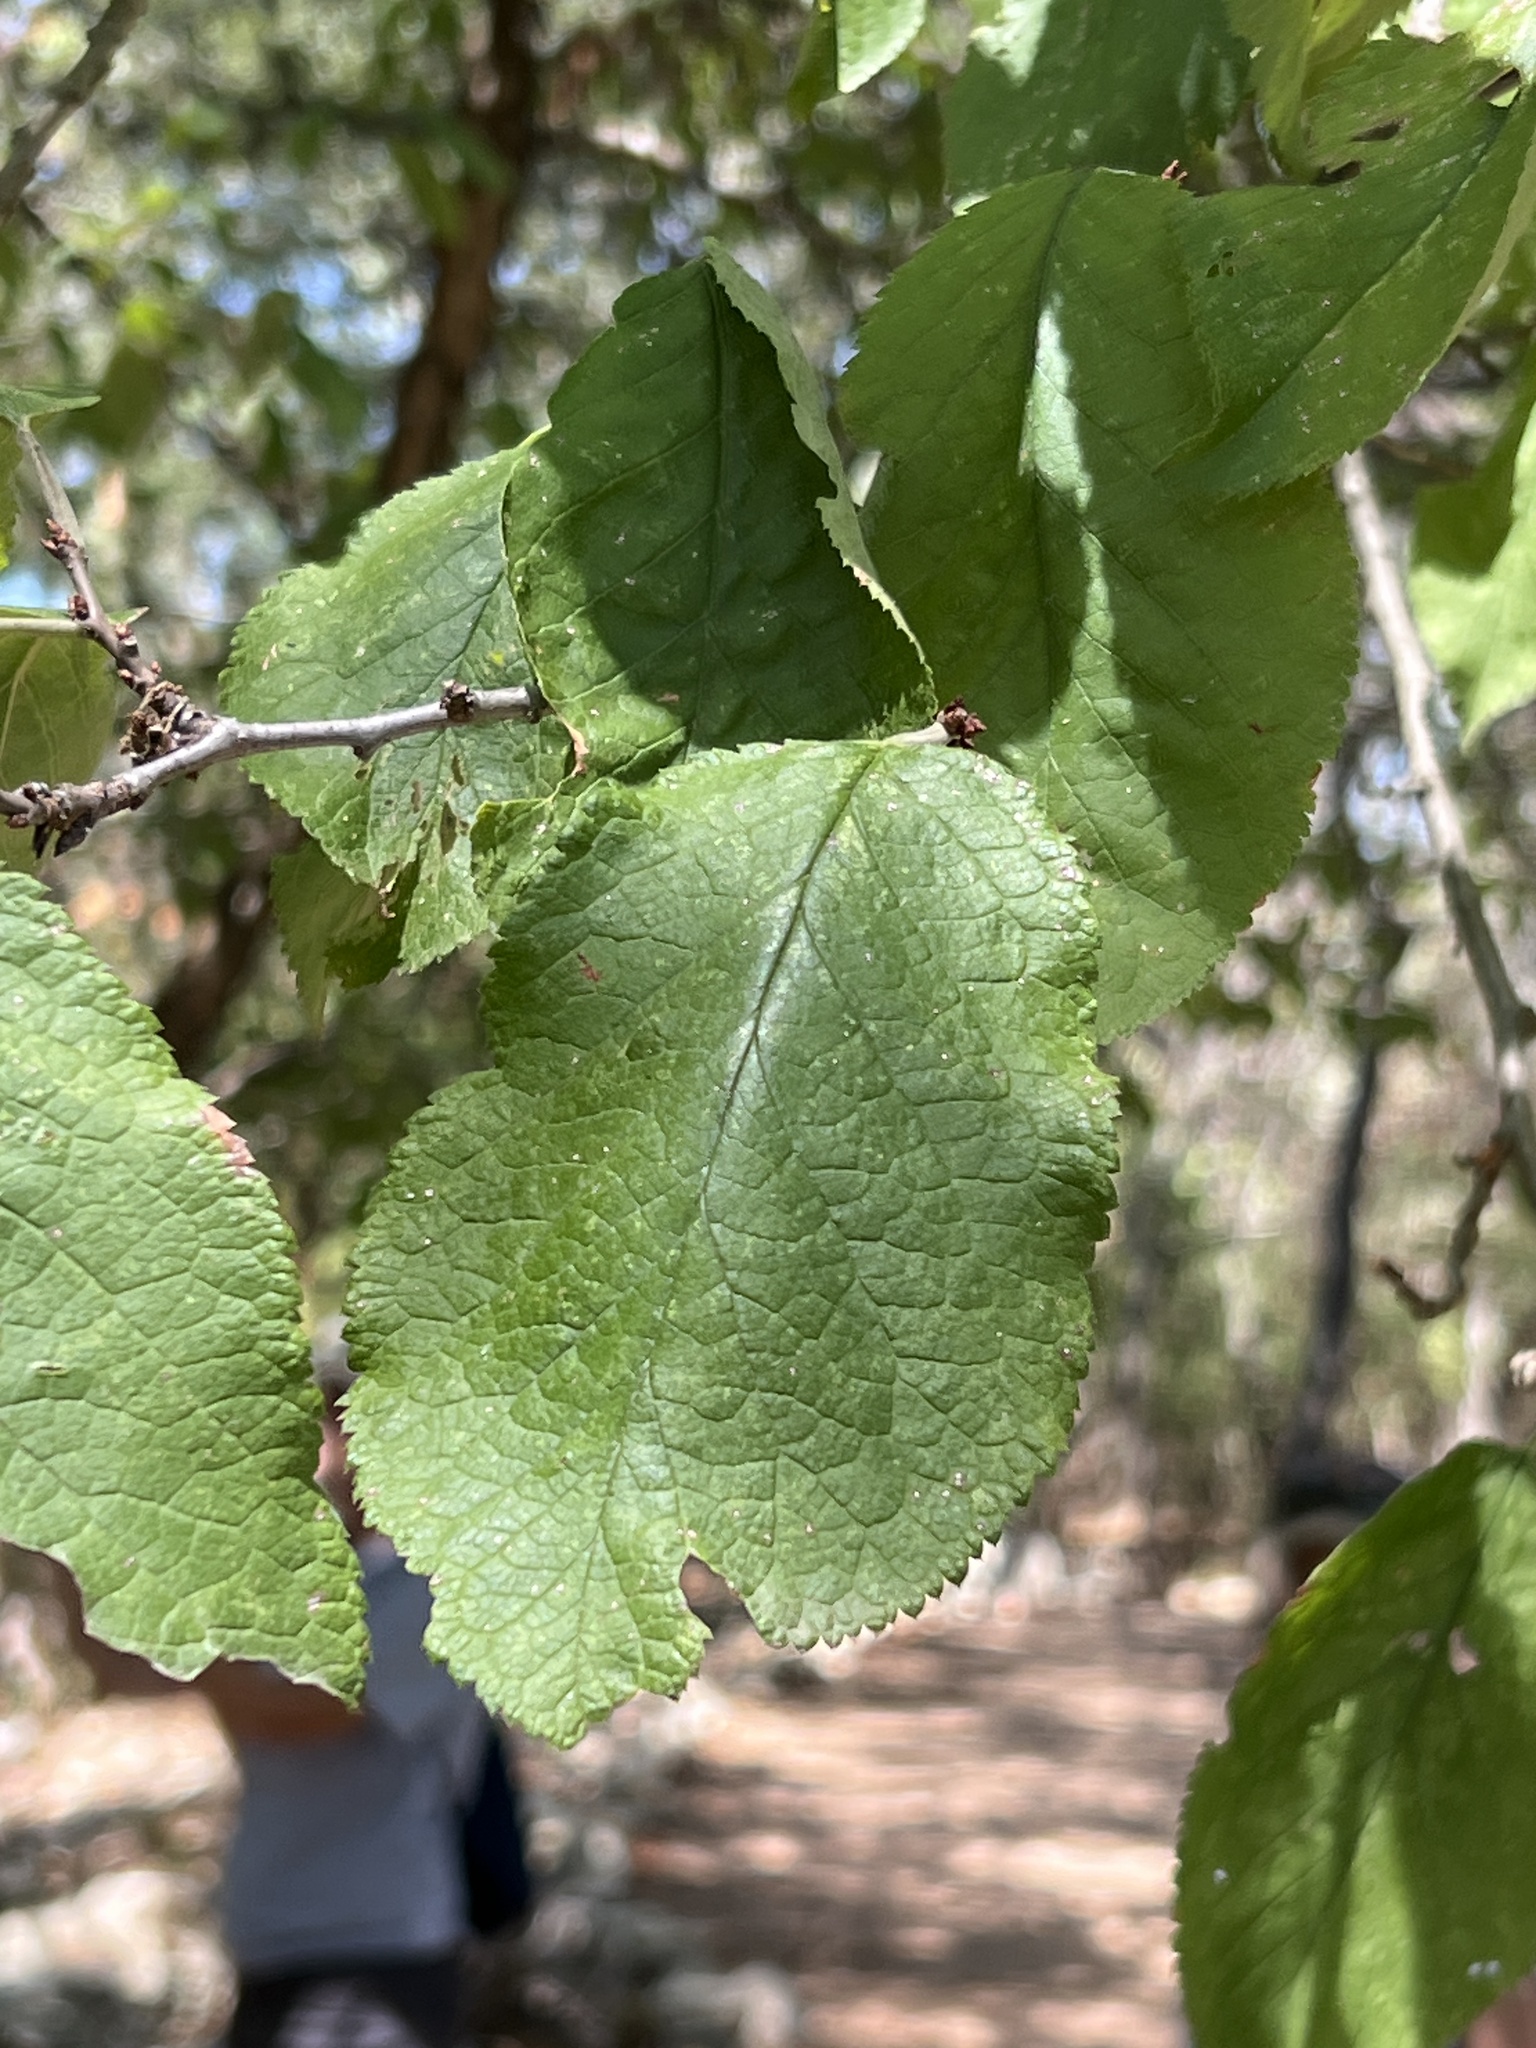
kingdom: Plantae
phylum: Tracheophyta
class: Magnoliopsida
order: Rosales
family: Rosaceae
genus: Prunus
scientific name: Prunus mexicana
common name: Mexican plum
